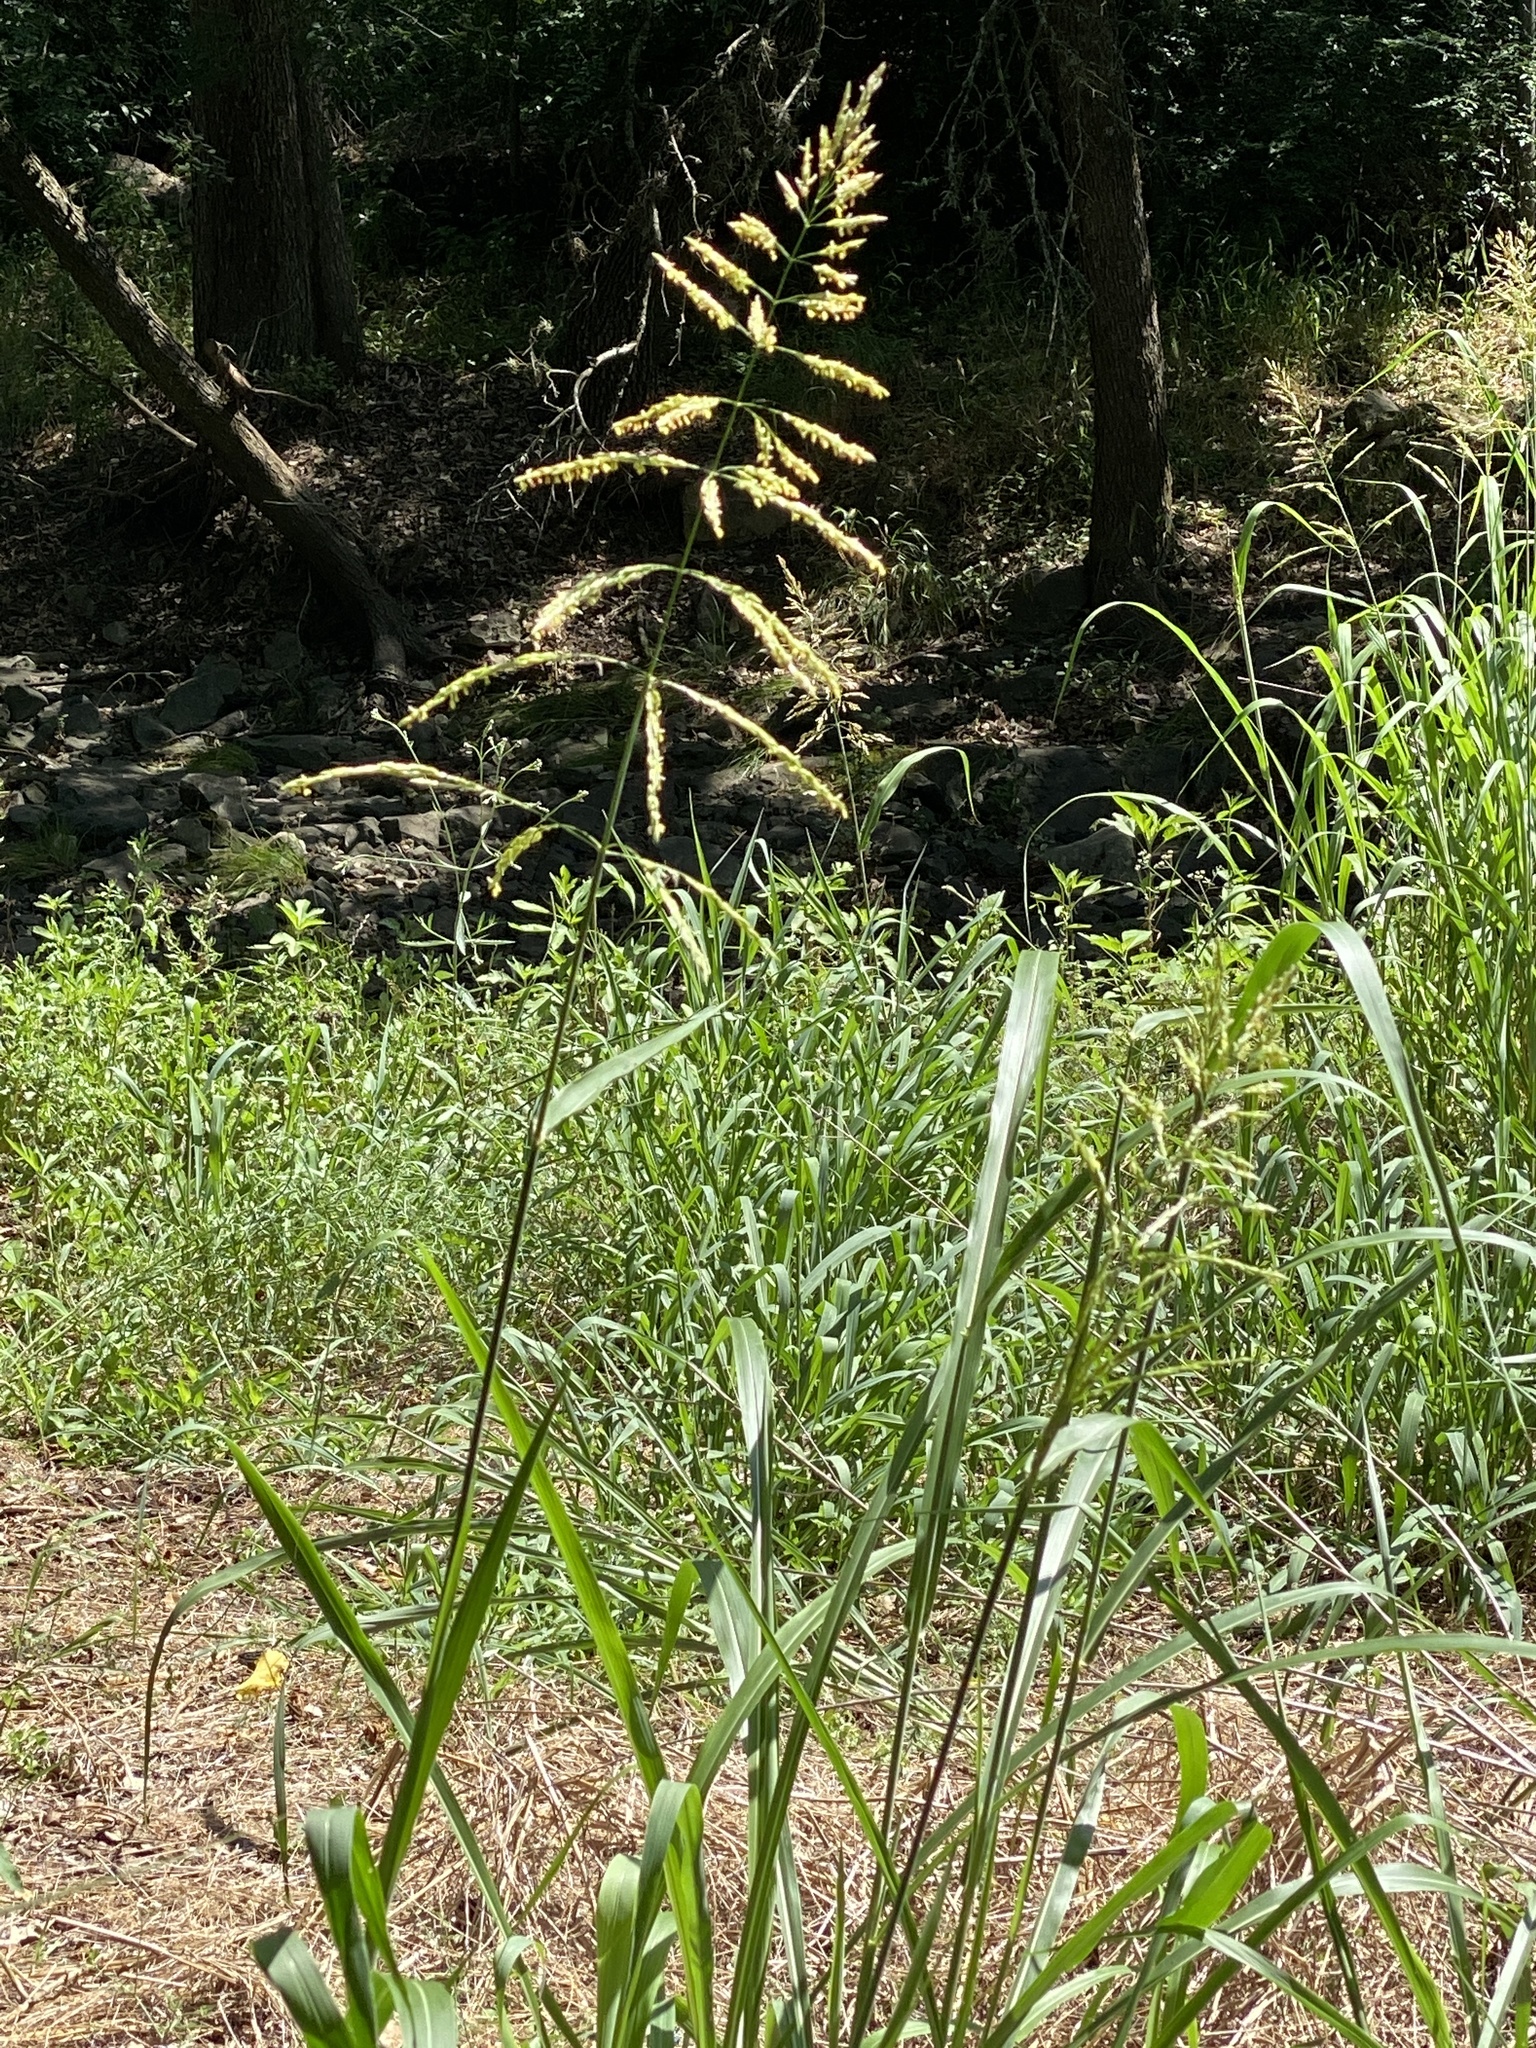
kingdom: Plantae
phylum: Tracheophyta
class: Liliopsida
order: Poales
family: Poaceae
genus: Sorghum
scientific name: Sorghum halepense
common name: Johnson-grass
